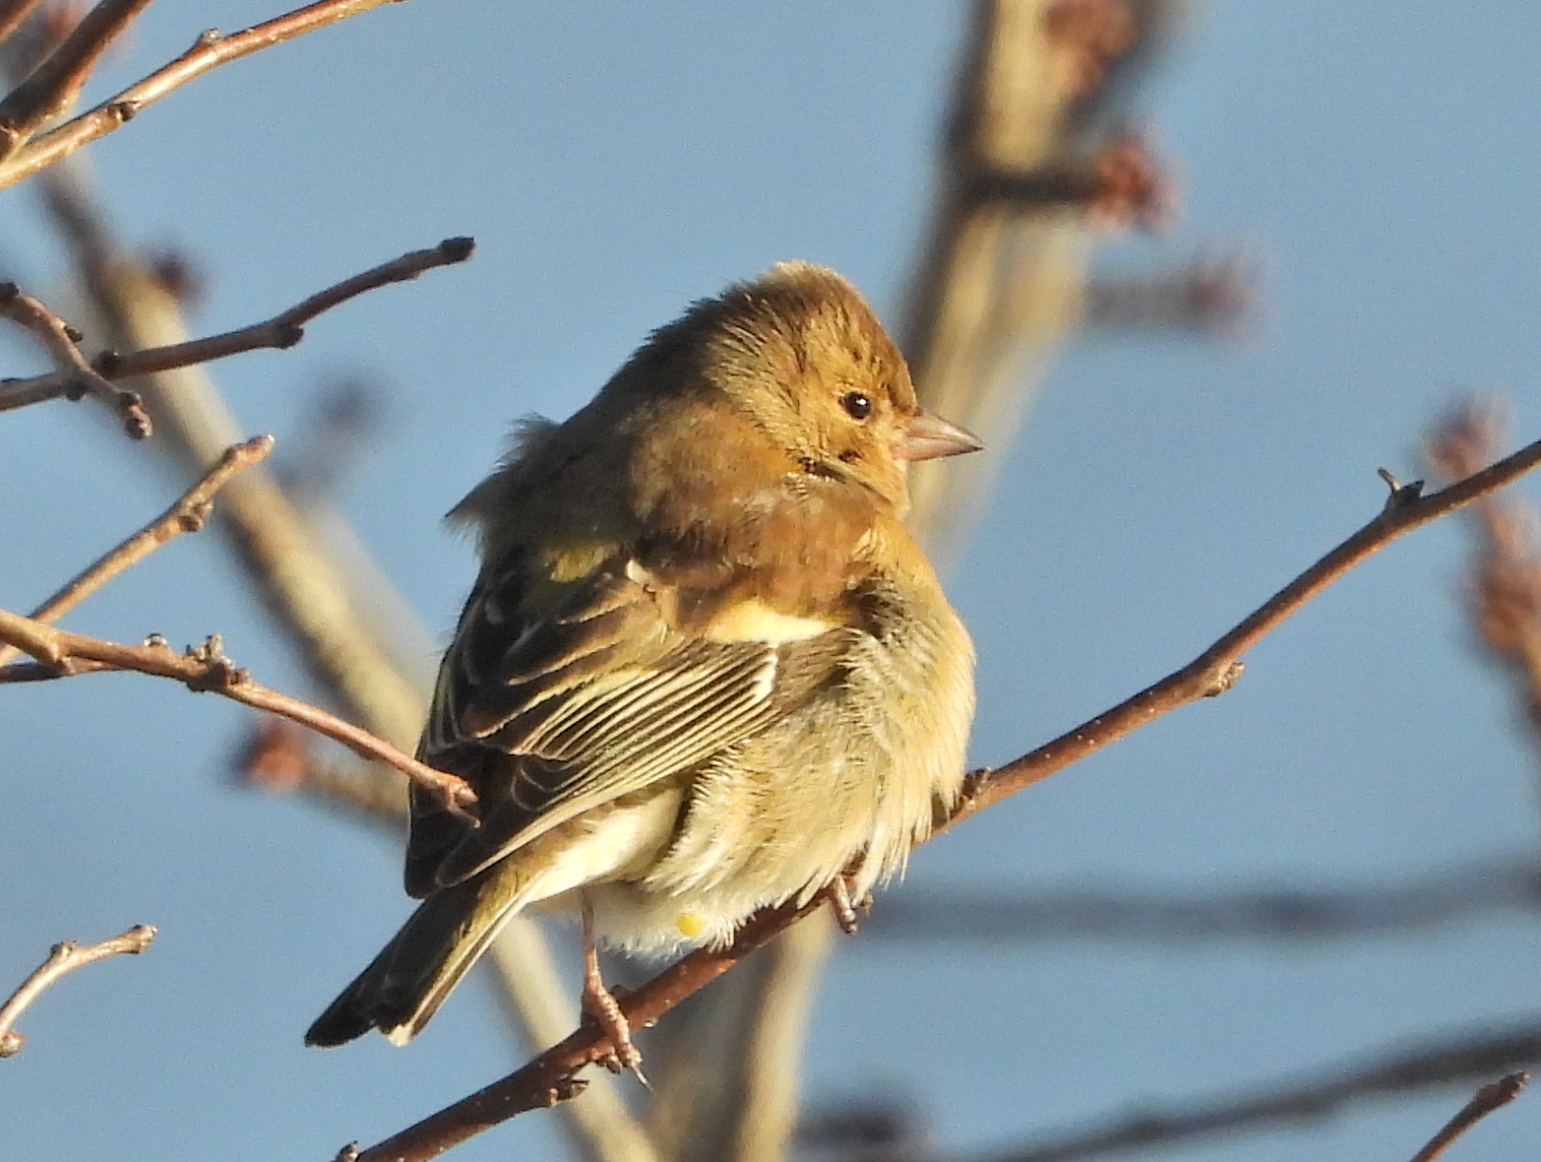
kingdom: Animalia
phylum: Chordata
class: Aves
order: Passeriformes
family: Fringillidae
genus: Fringilla
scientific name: Fringilla coelebs
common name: Common chaffinch
